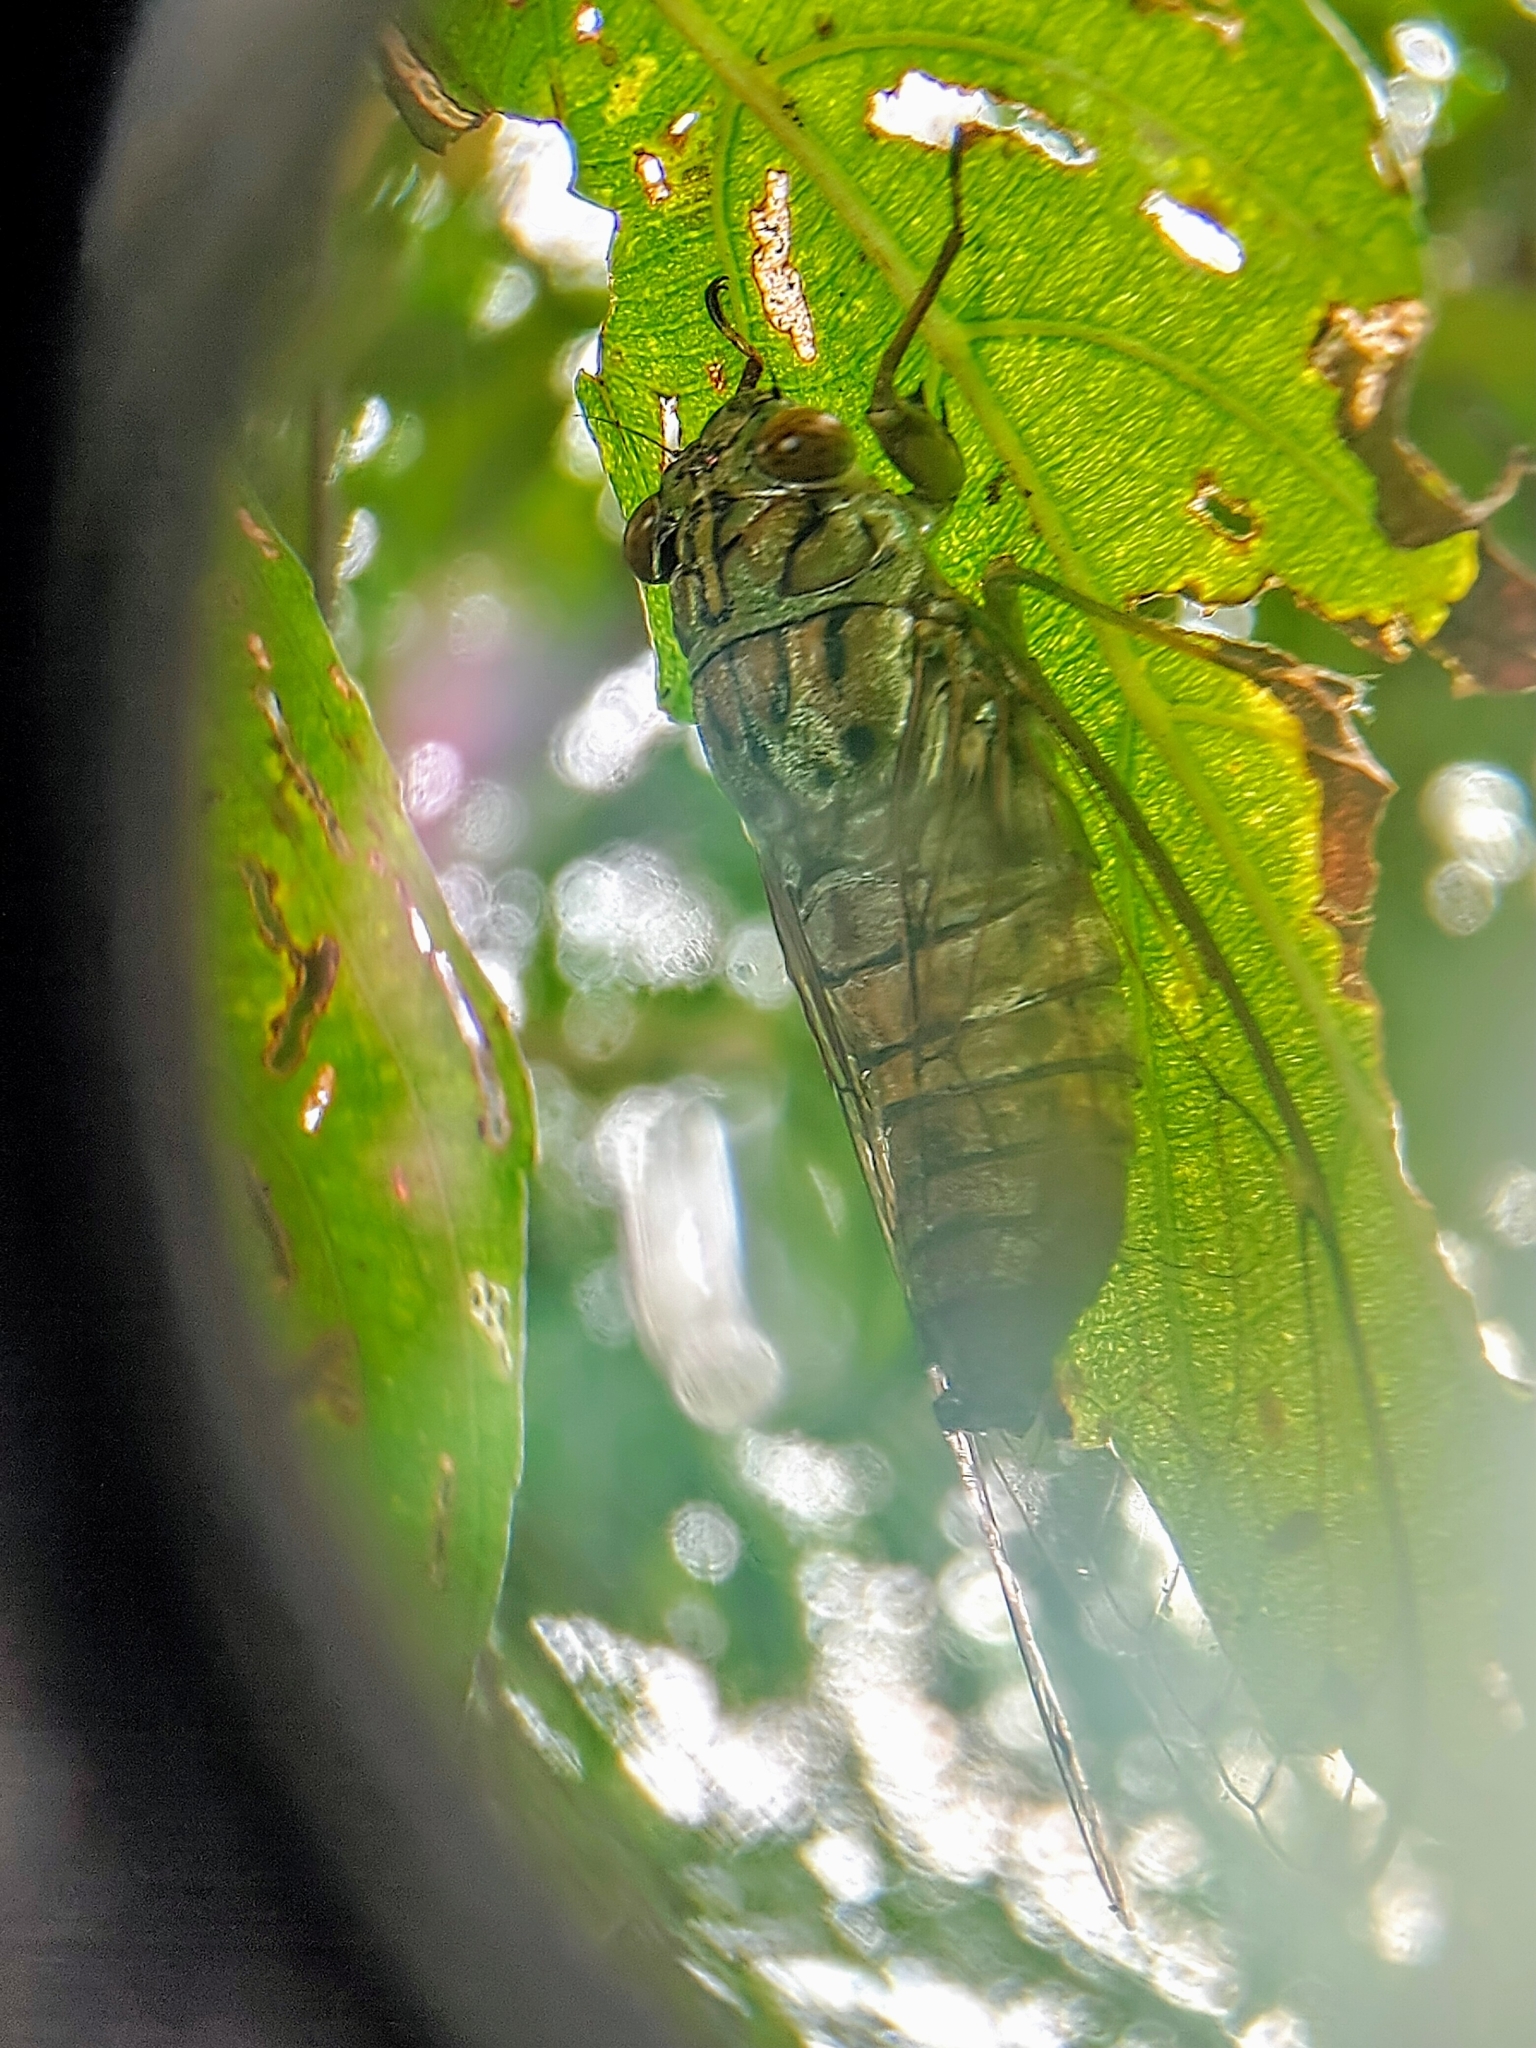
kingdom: Animalia
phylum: Arthropoda
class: Insecta
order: Hemiptera
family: Cicadidae
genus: Purana
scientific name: Purana usnani
